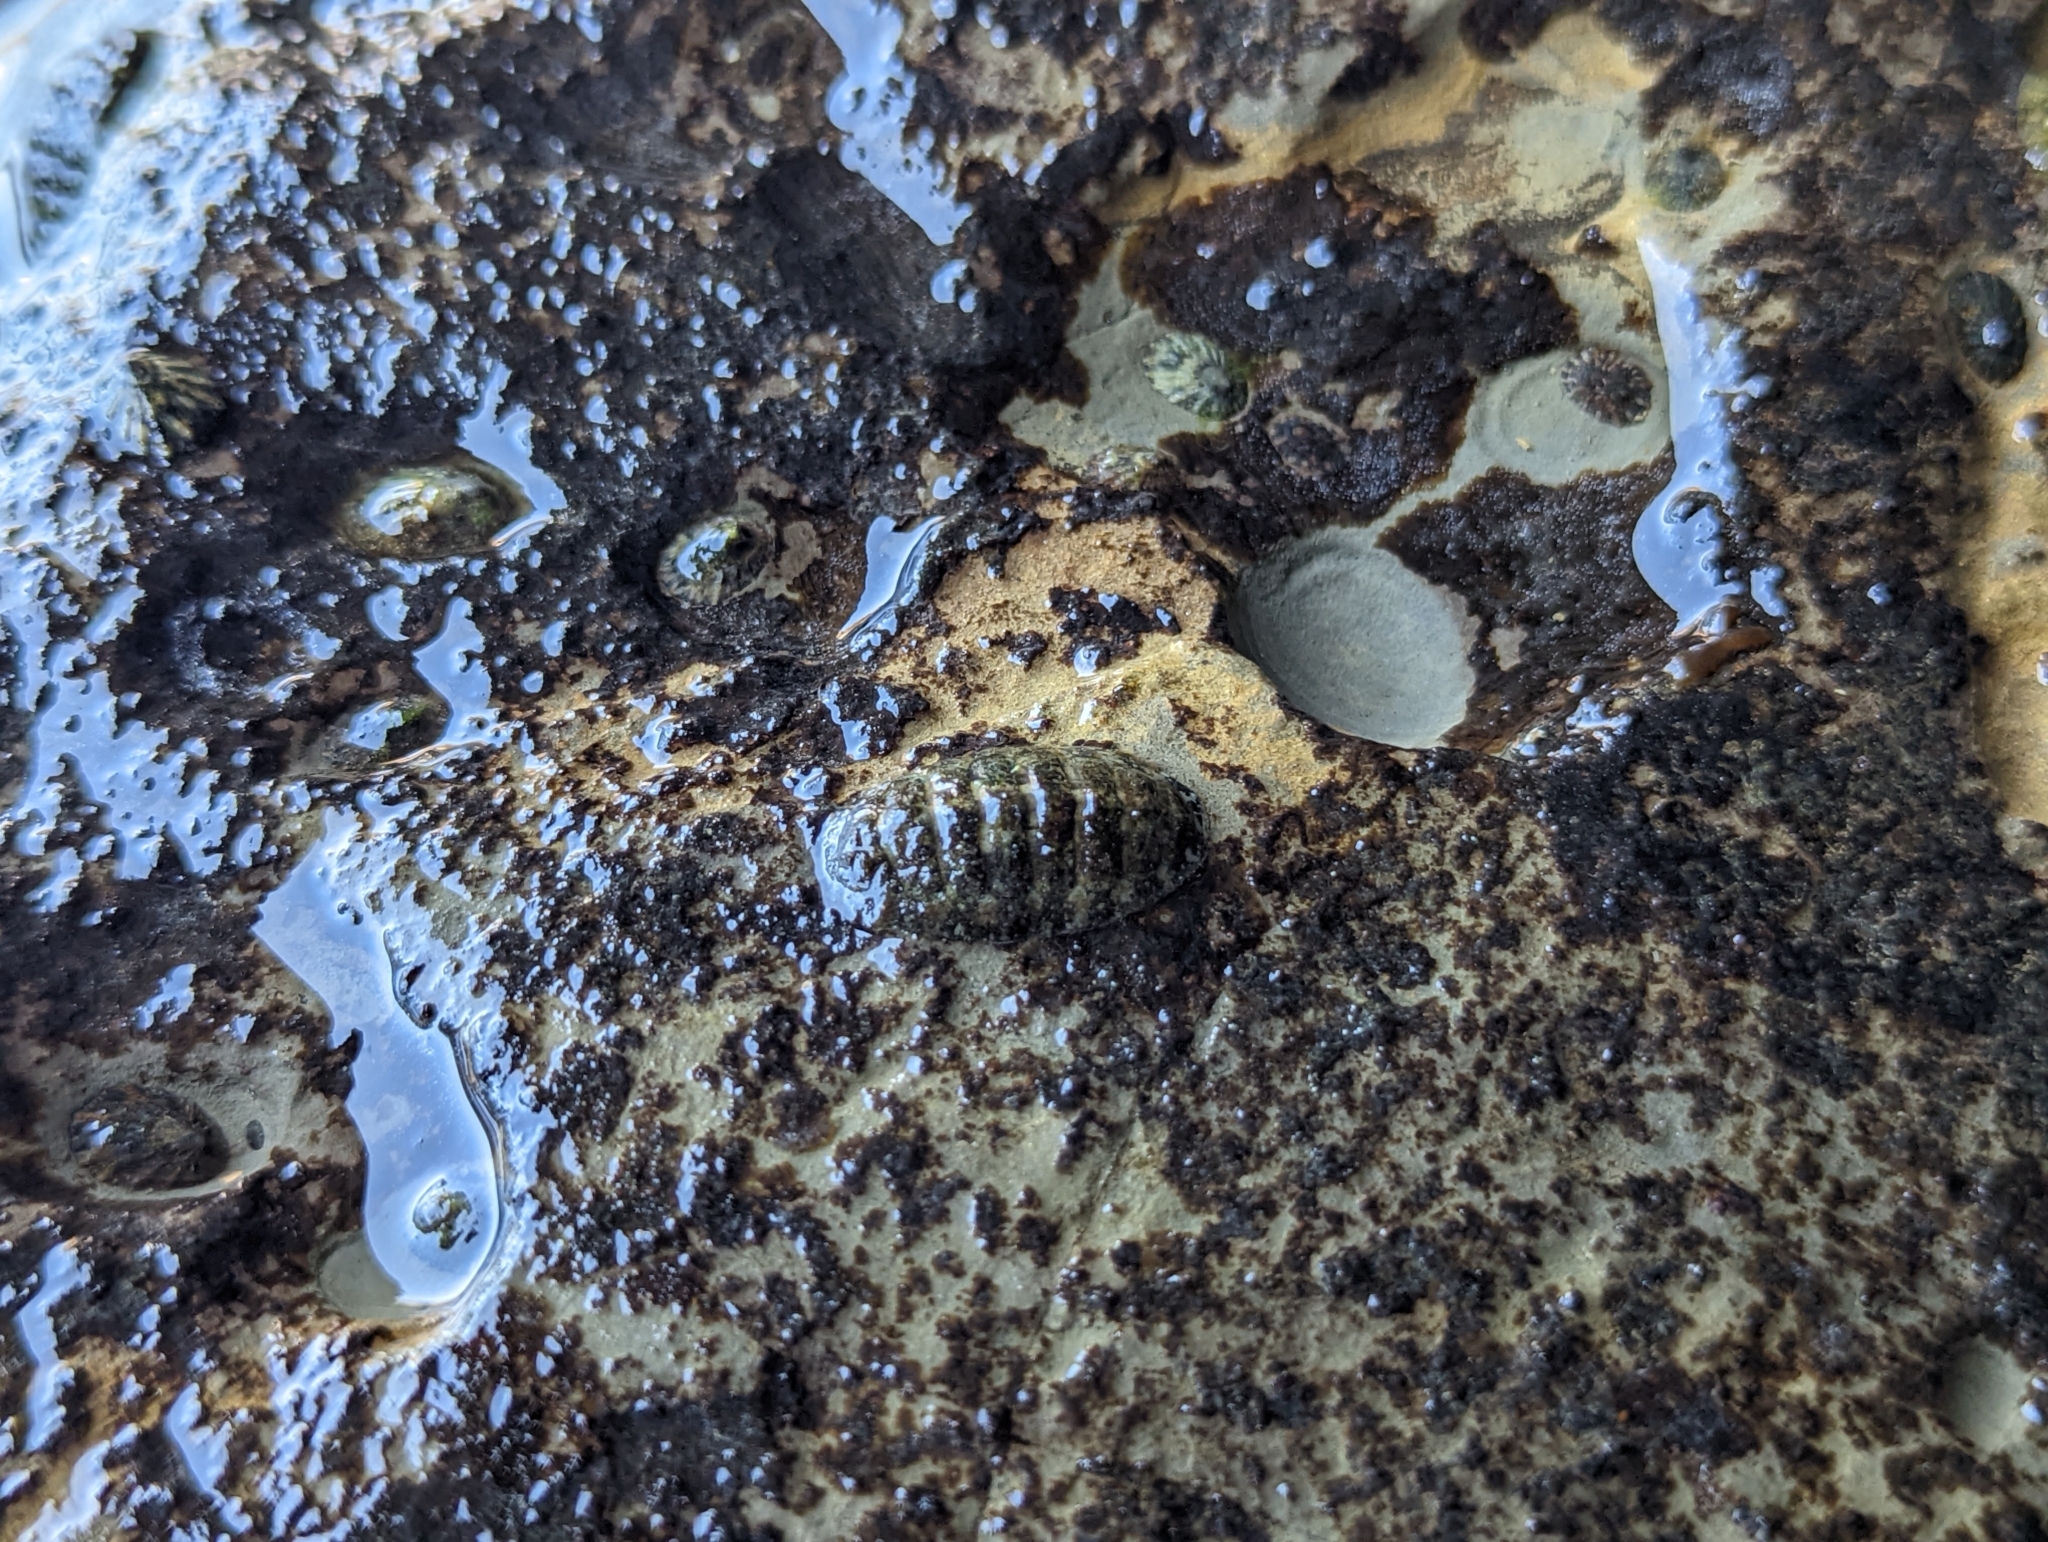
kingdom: Animalia
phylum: Mollusca
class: Polyplacophora
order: Chitonida
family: Tonicellidae
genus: Cyanoplax
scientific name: Cyanoplax hartwegii
